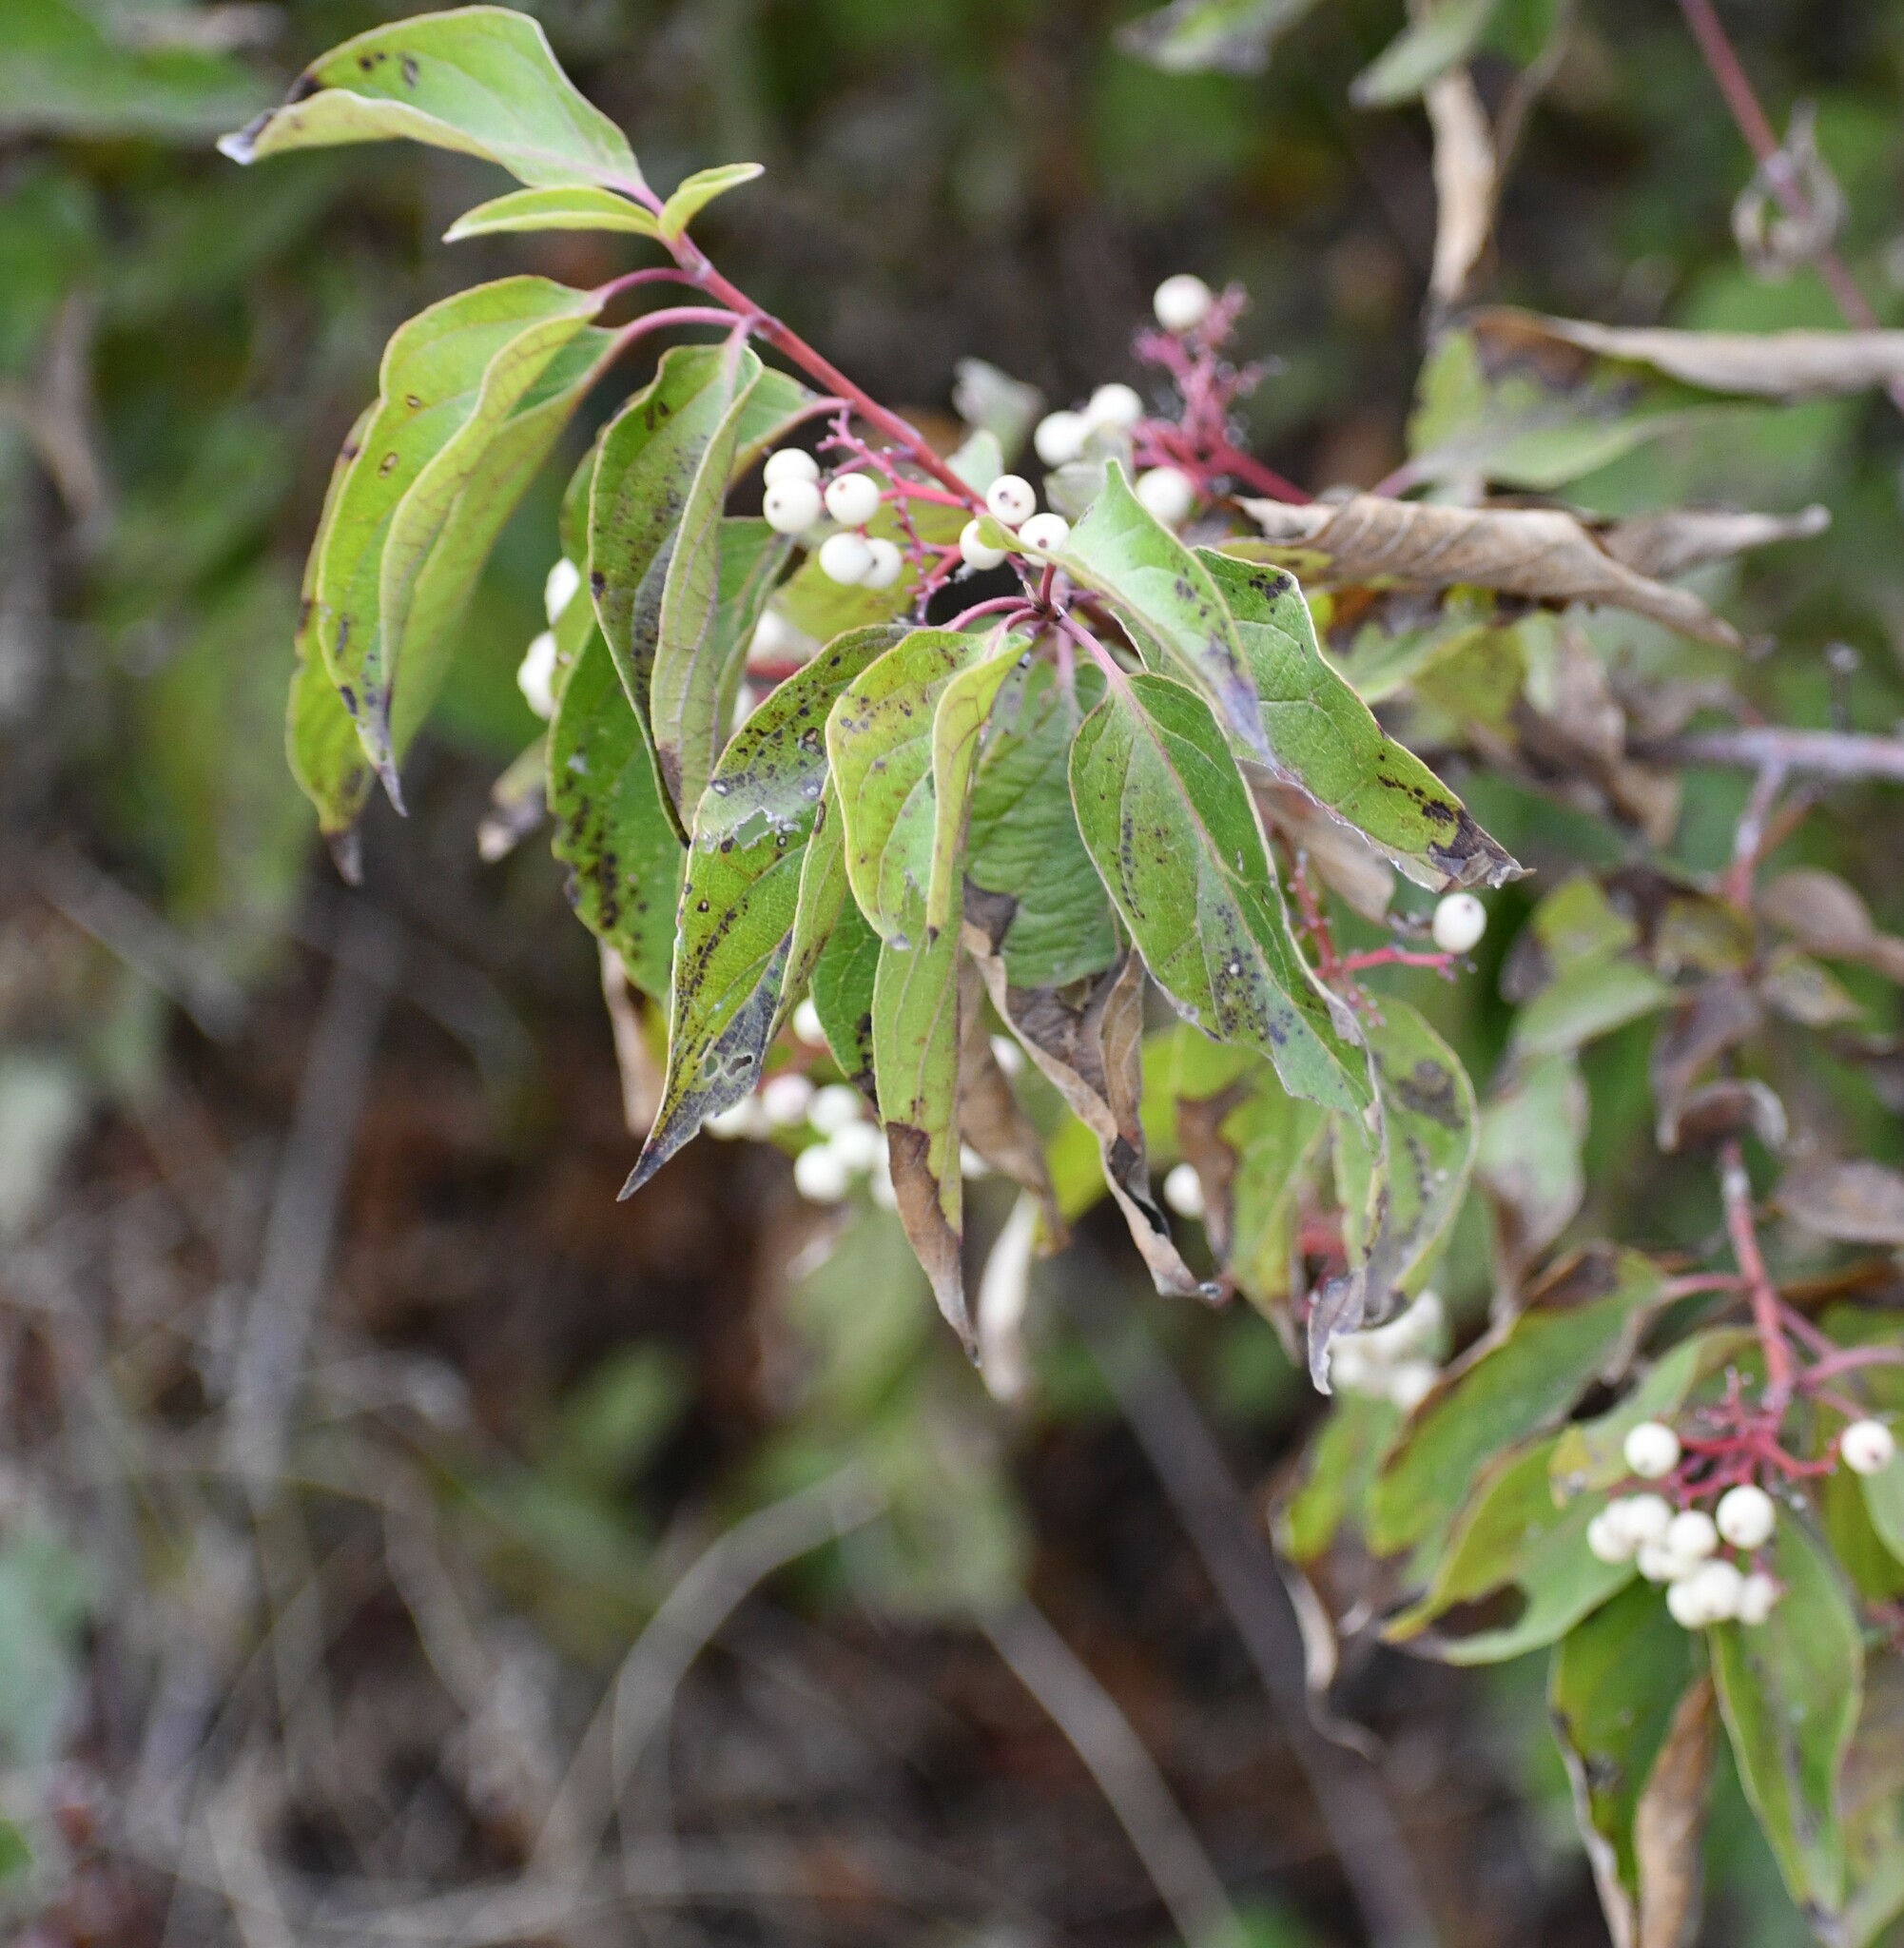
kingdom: Plantae
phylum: Tracheophyta
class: Magnoliopsida
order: Cornales
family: Cornaceae
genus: Cornus
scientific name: Cornus drummondii
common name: Rough-leaf dogwood
